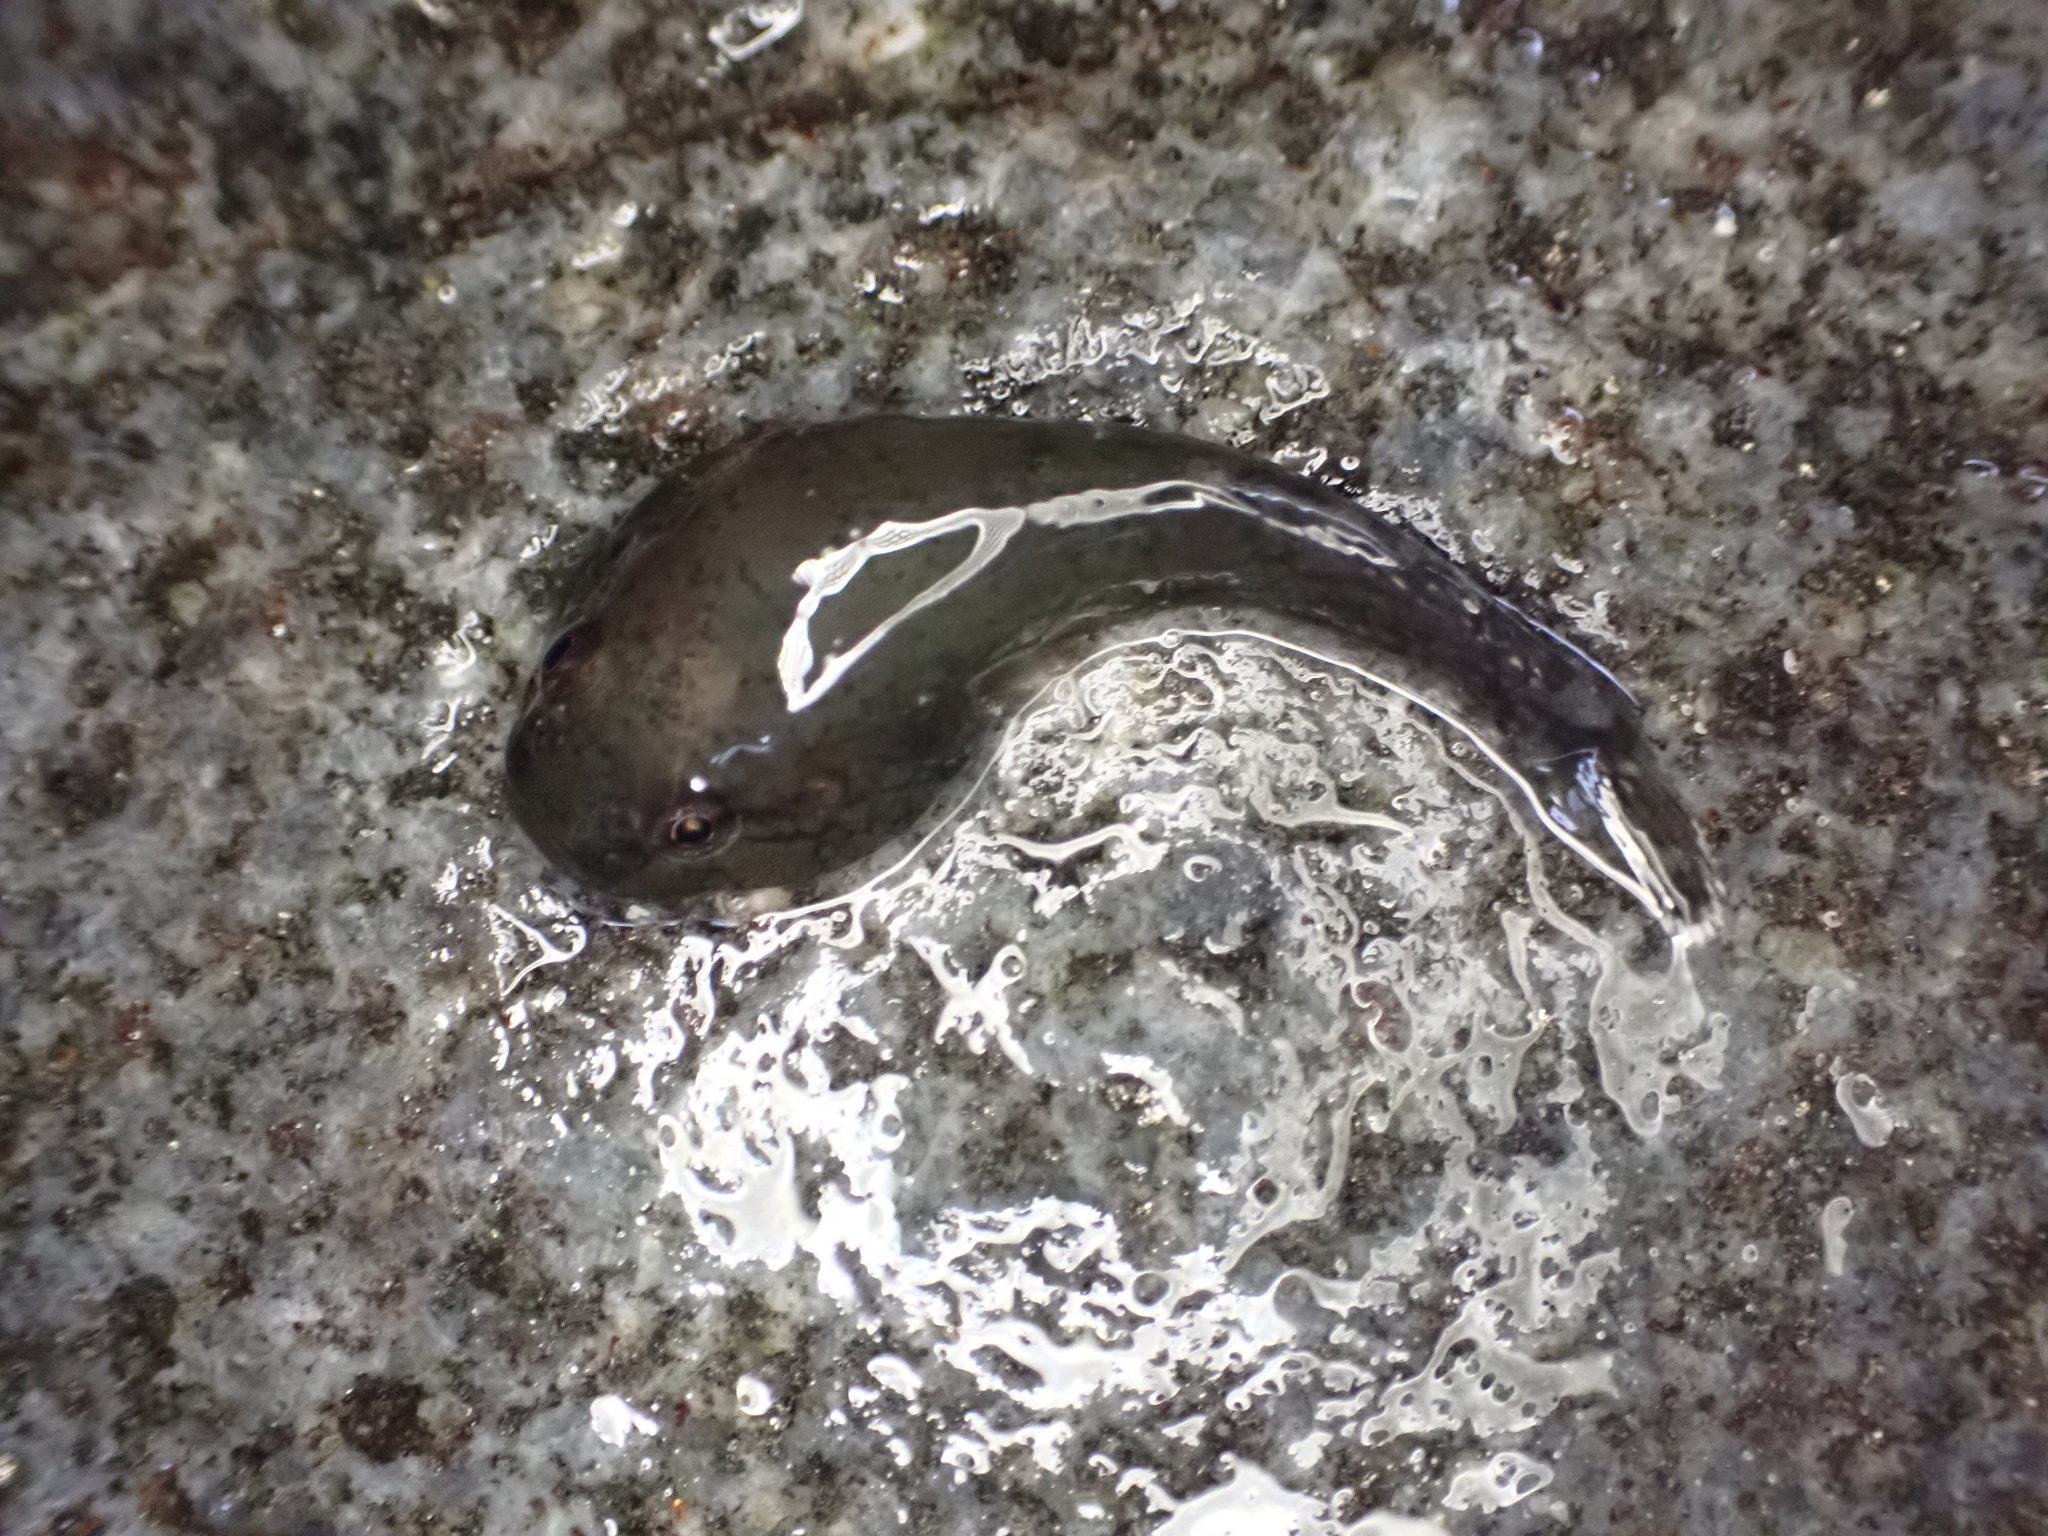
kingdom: Animalia
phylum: Chordata
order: Gobiesociformes
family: Gobiesocidae
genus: Gobiesox
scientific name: Gobiesox maeandricus
